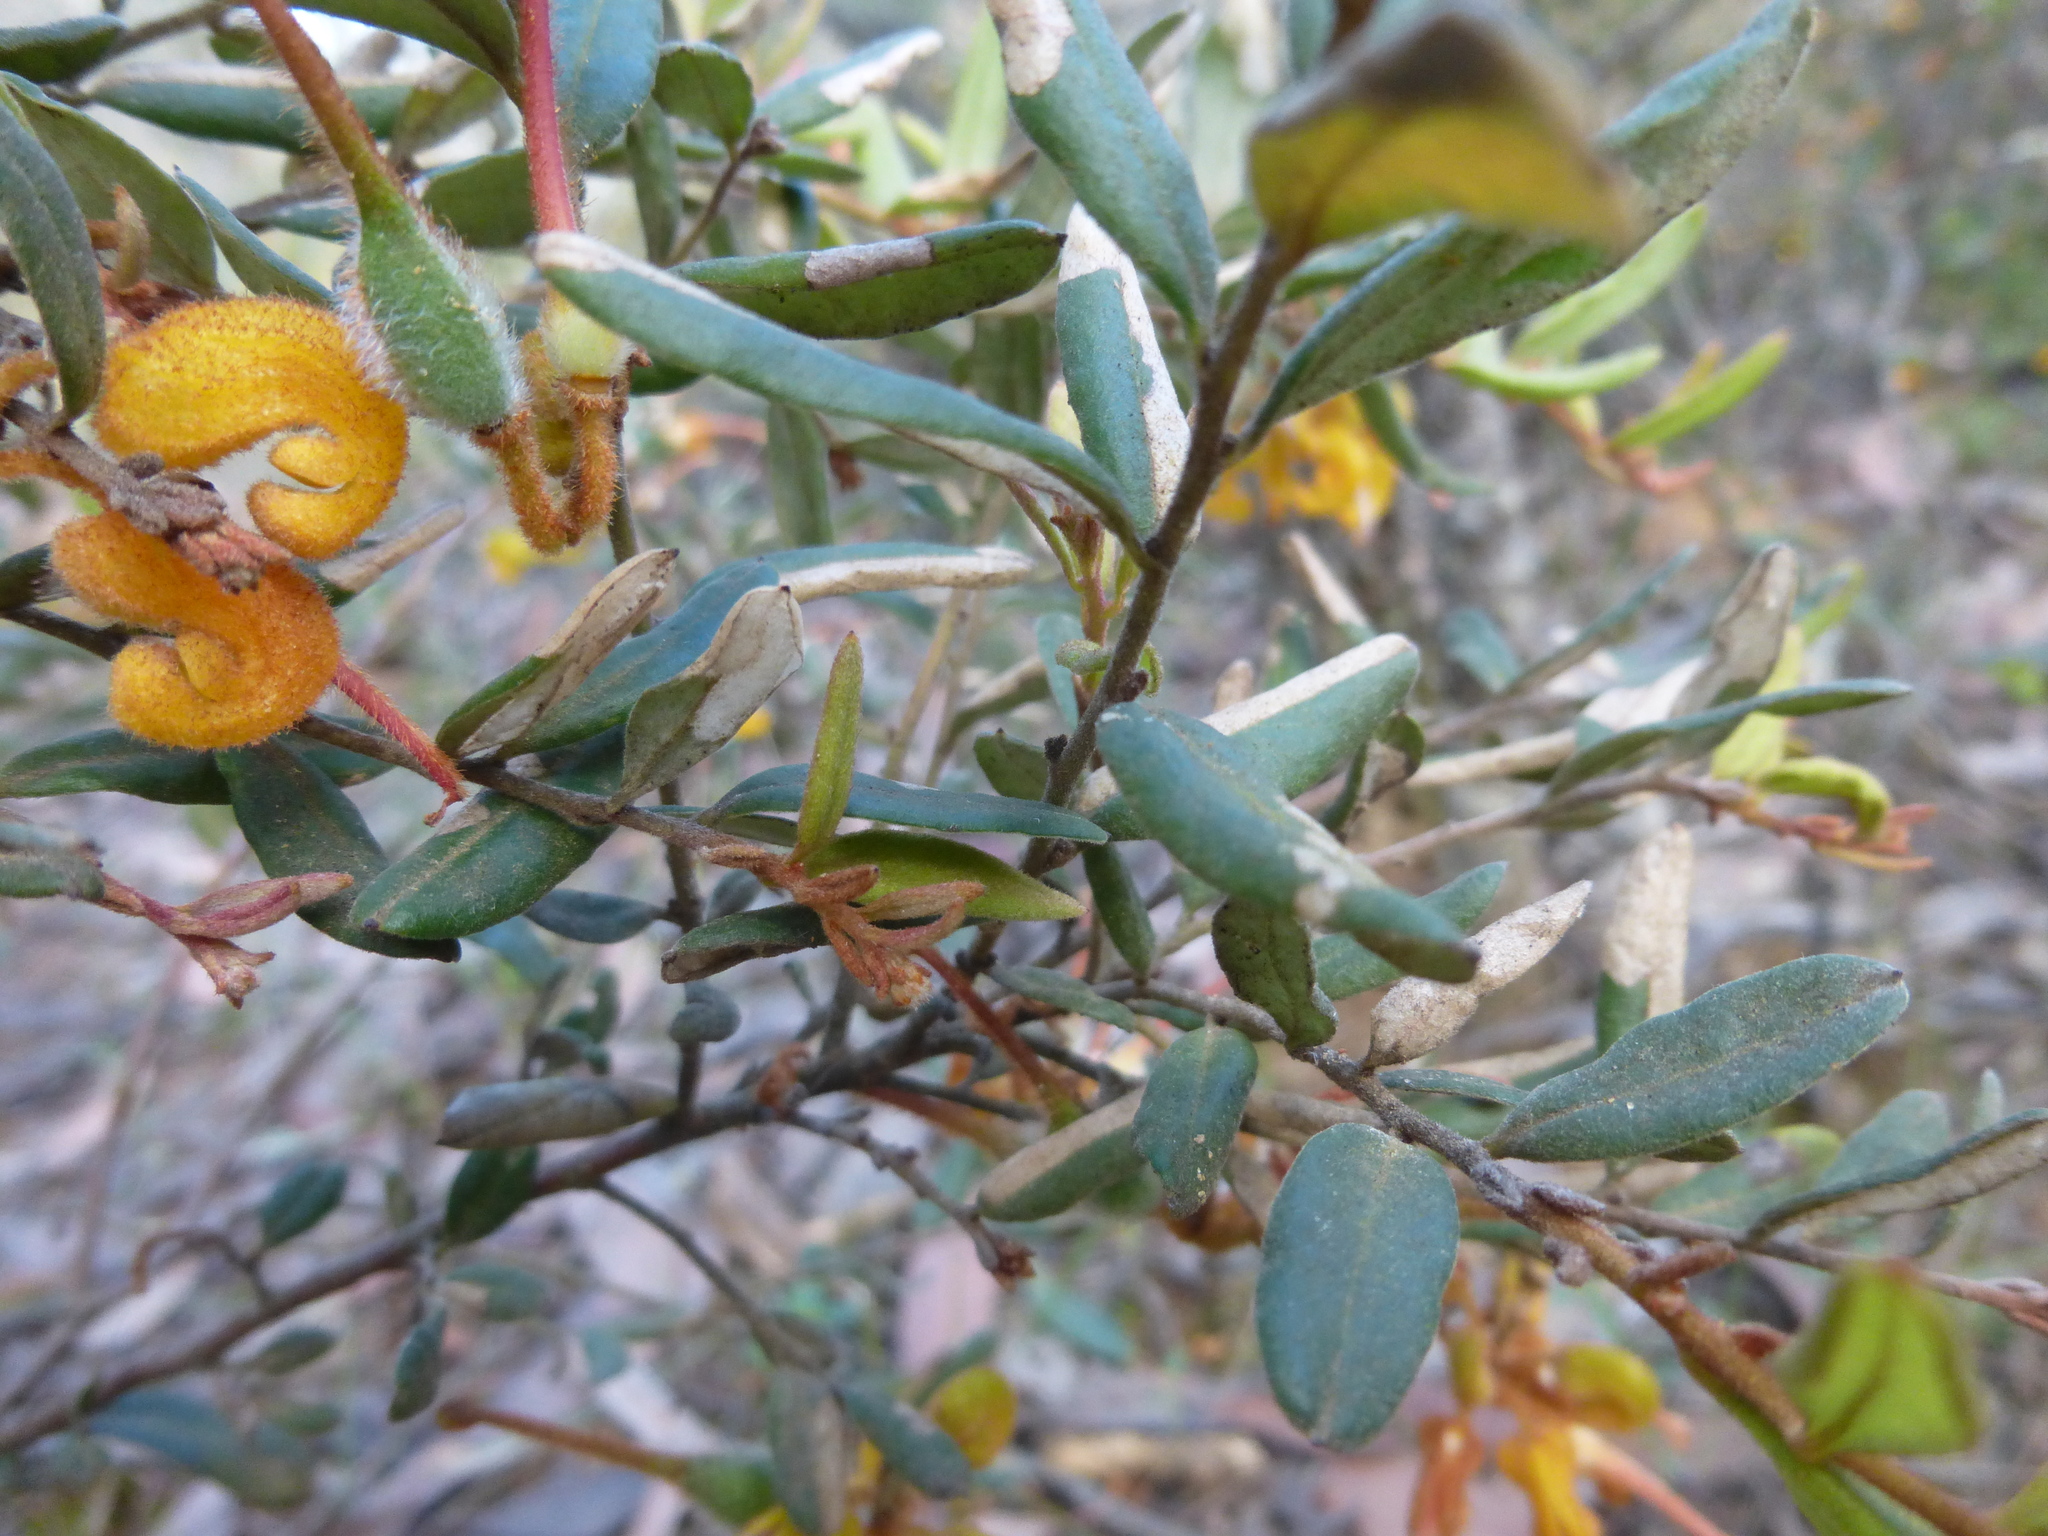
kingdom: Plantae
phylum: Tracheophyta
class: Magnoliopsida
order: Proteales
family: Proteaceae
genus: Grevillea
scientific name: Grevillea chrysophaea
